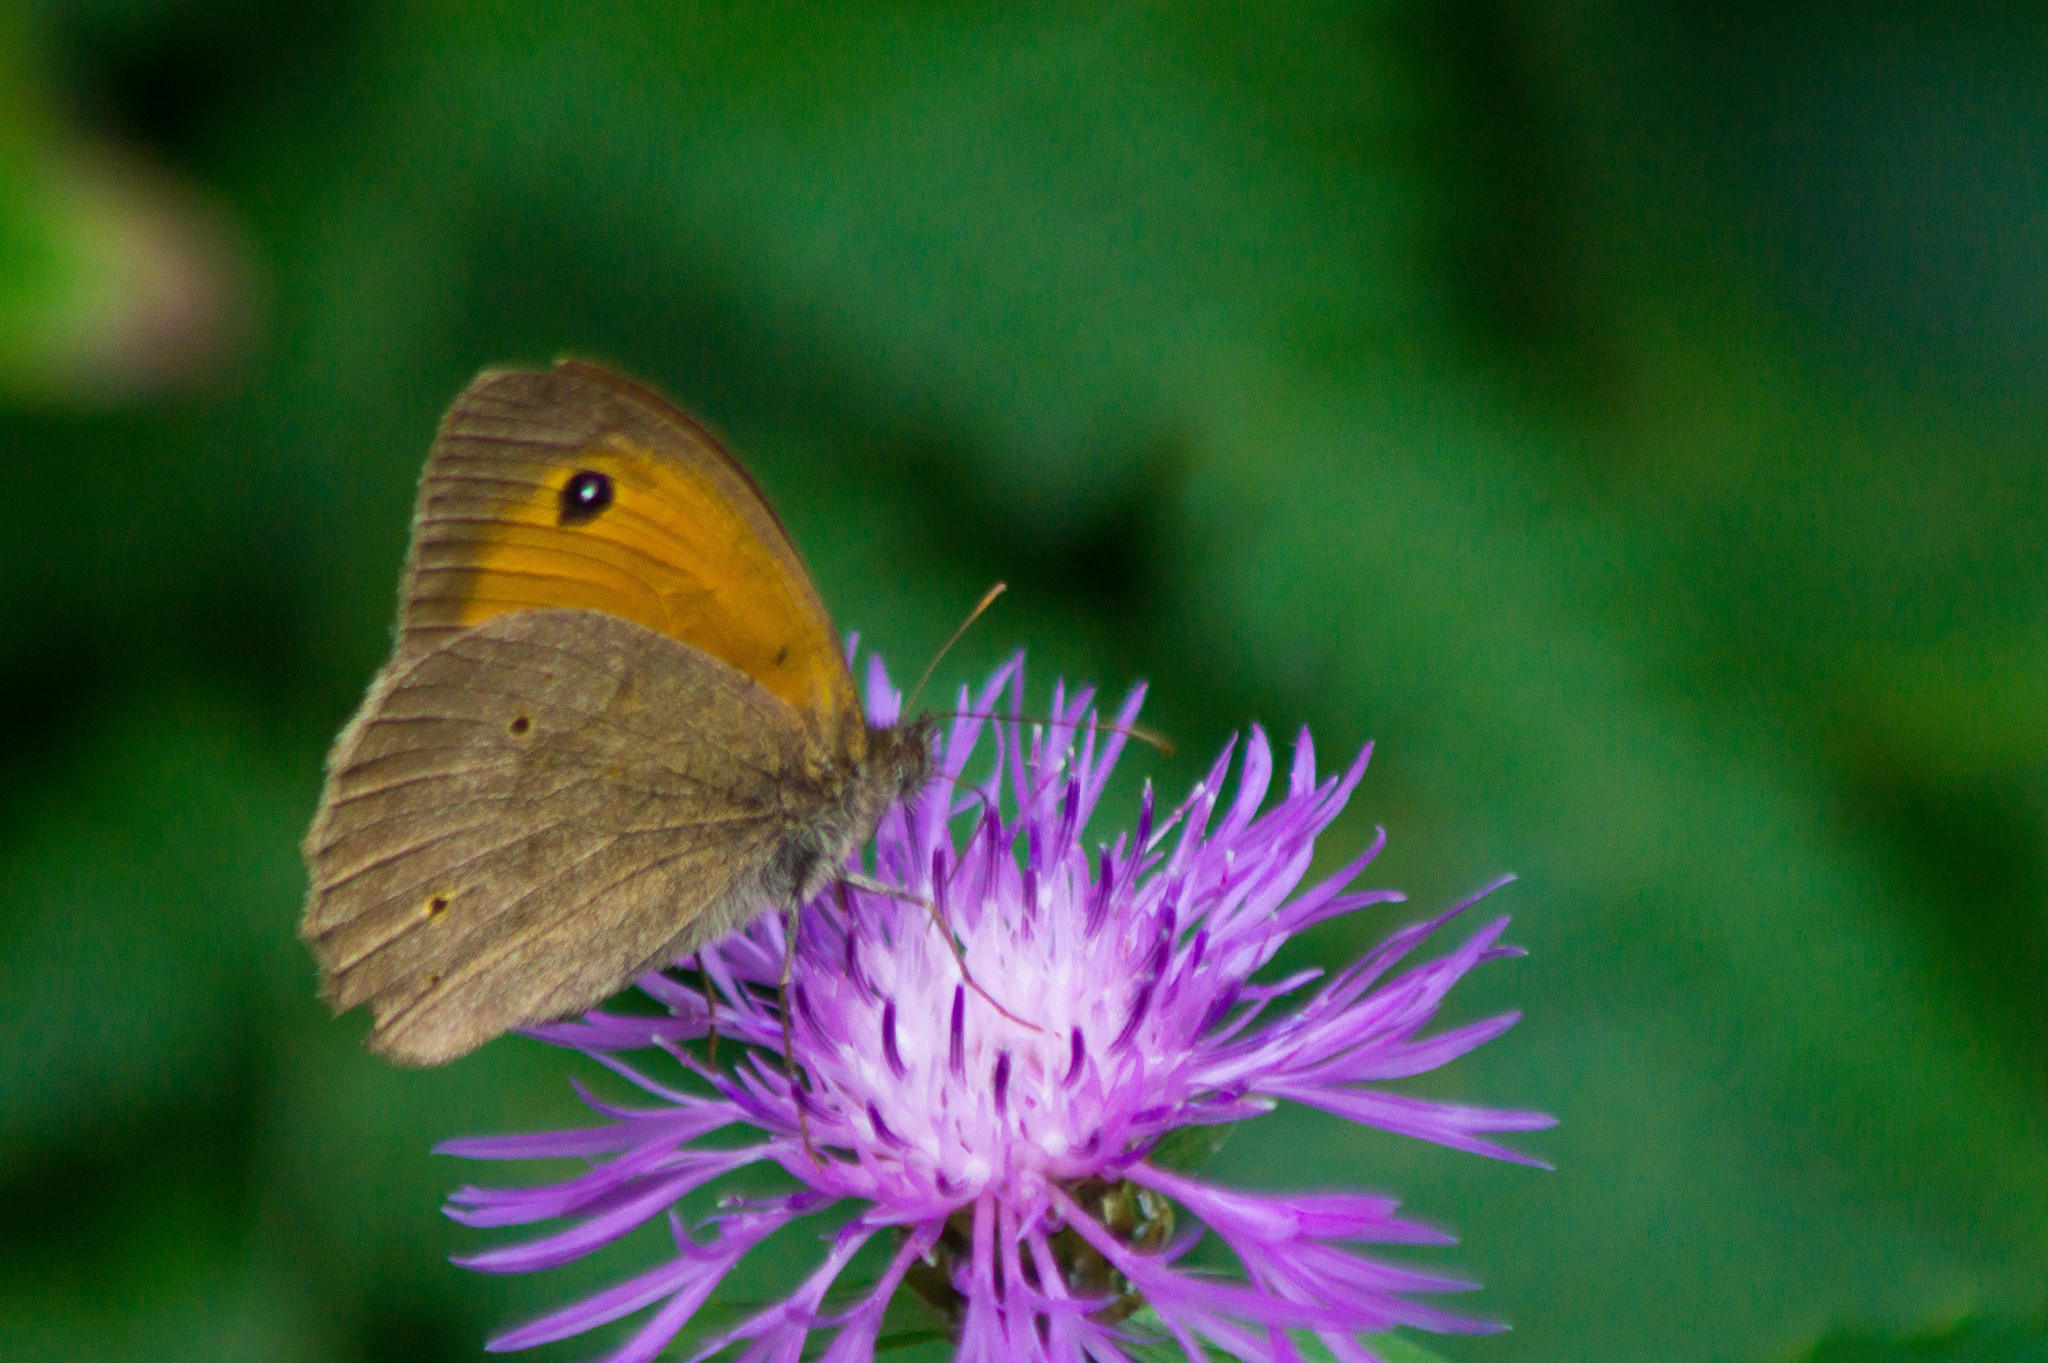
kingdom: Animalia
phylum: Arthropoda
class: Insecta
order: Lepidoptera
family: Nymphalidae
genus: Maniola
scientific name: Maniola jurtina
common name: Meadow brown
